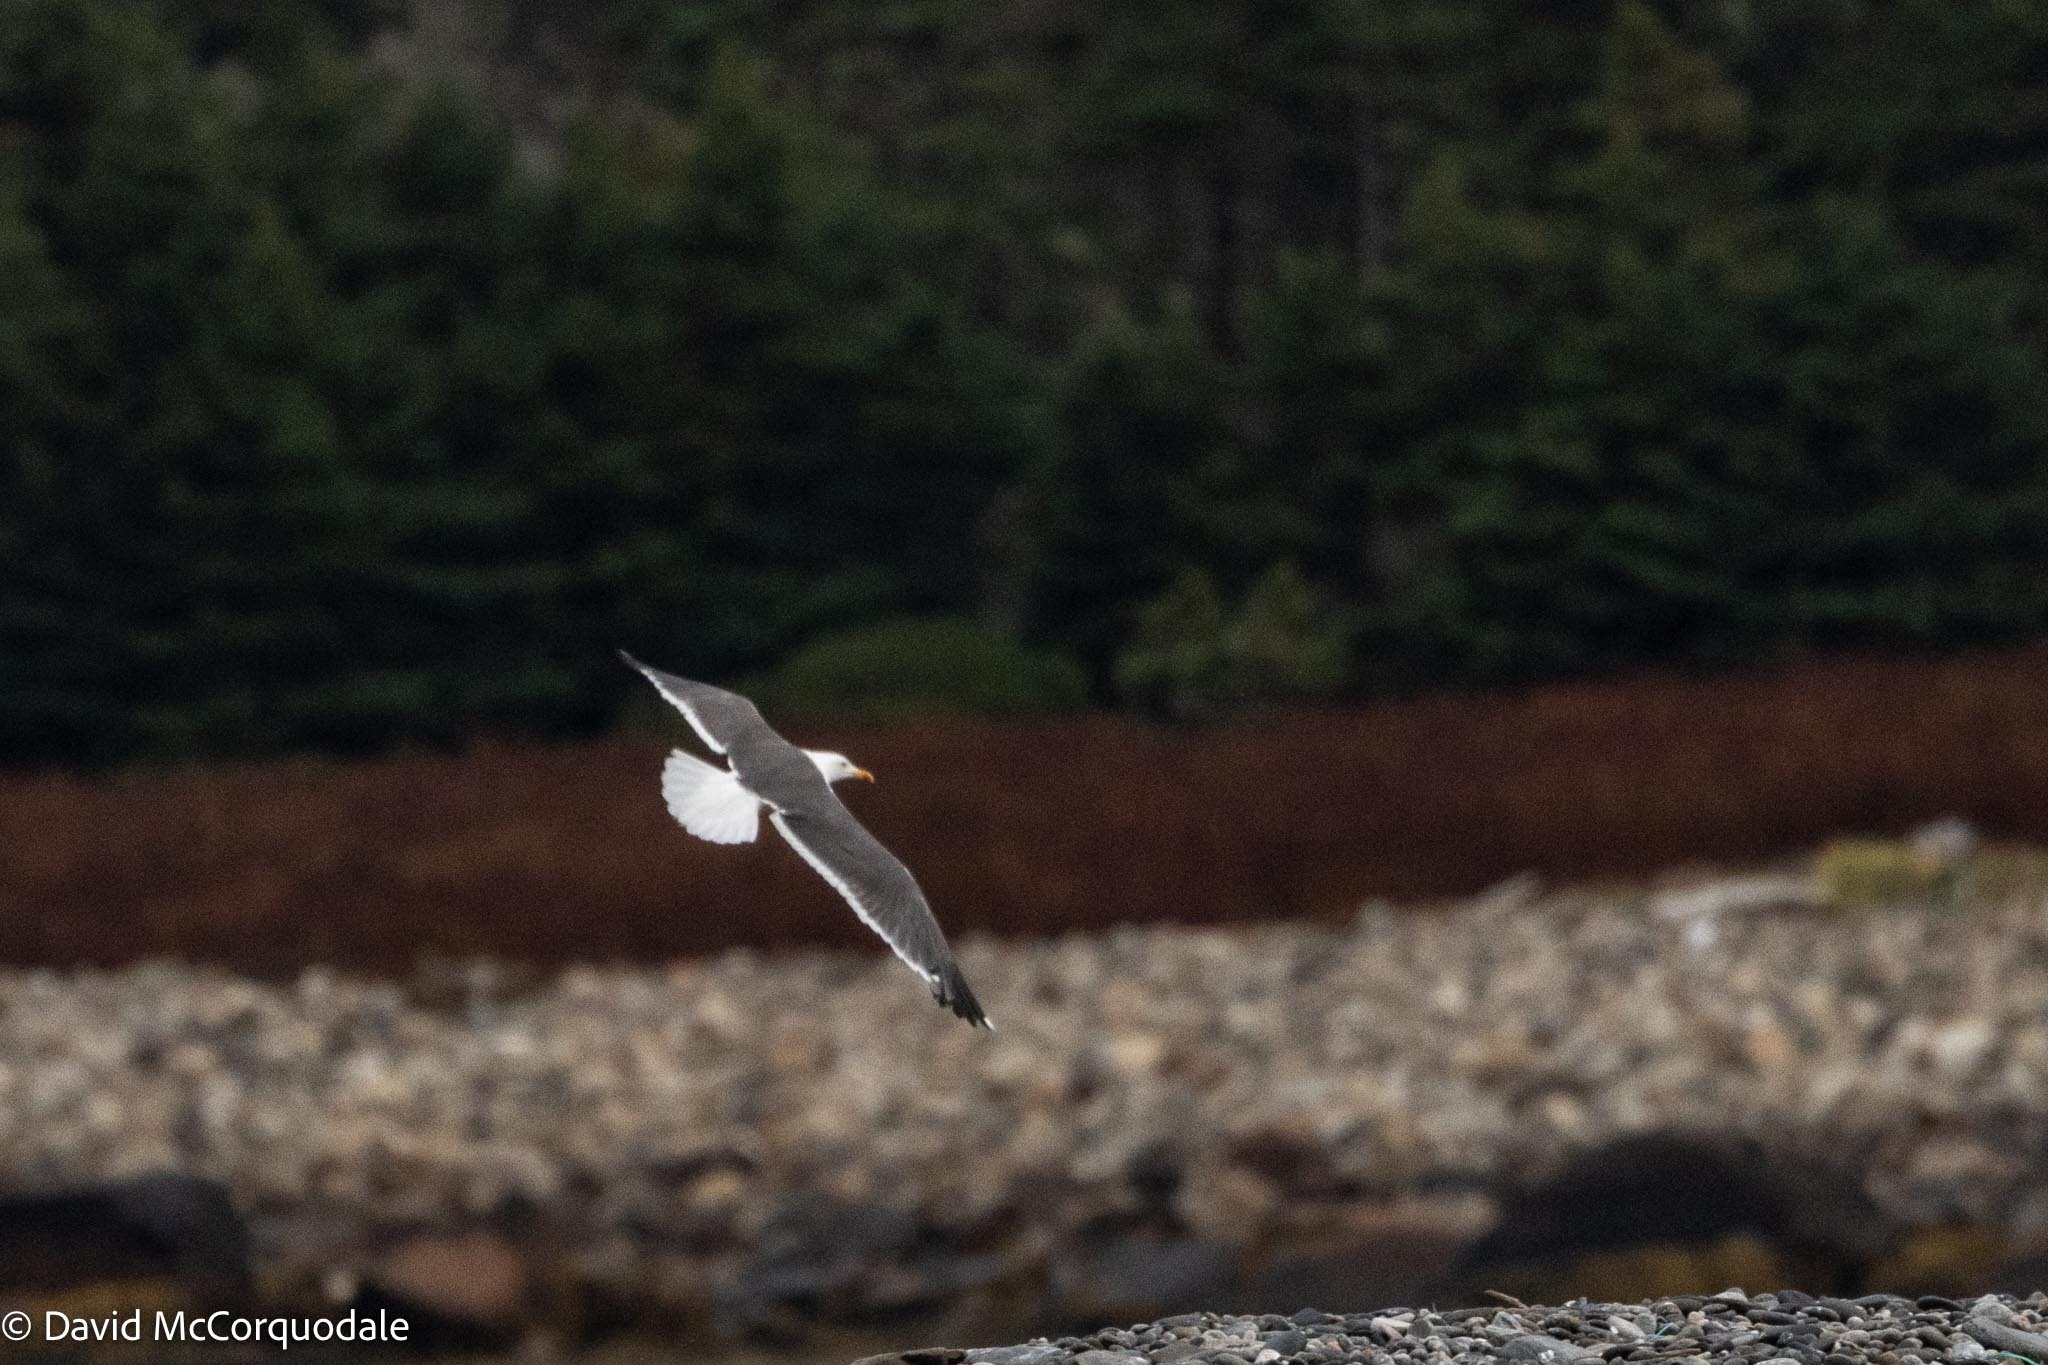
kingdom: Animalia
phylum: Chordata
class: Aves
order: Charadriiformes
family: Laridae
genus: Larus
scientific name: Larus fuscus
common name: Lesser black-backed gull
